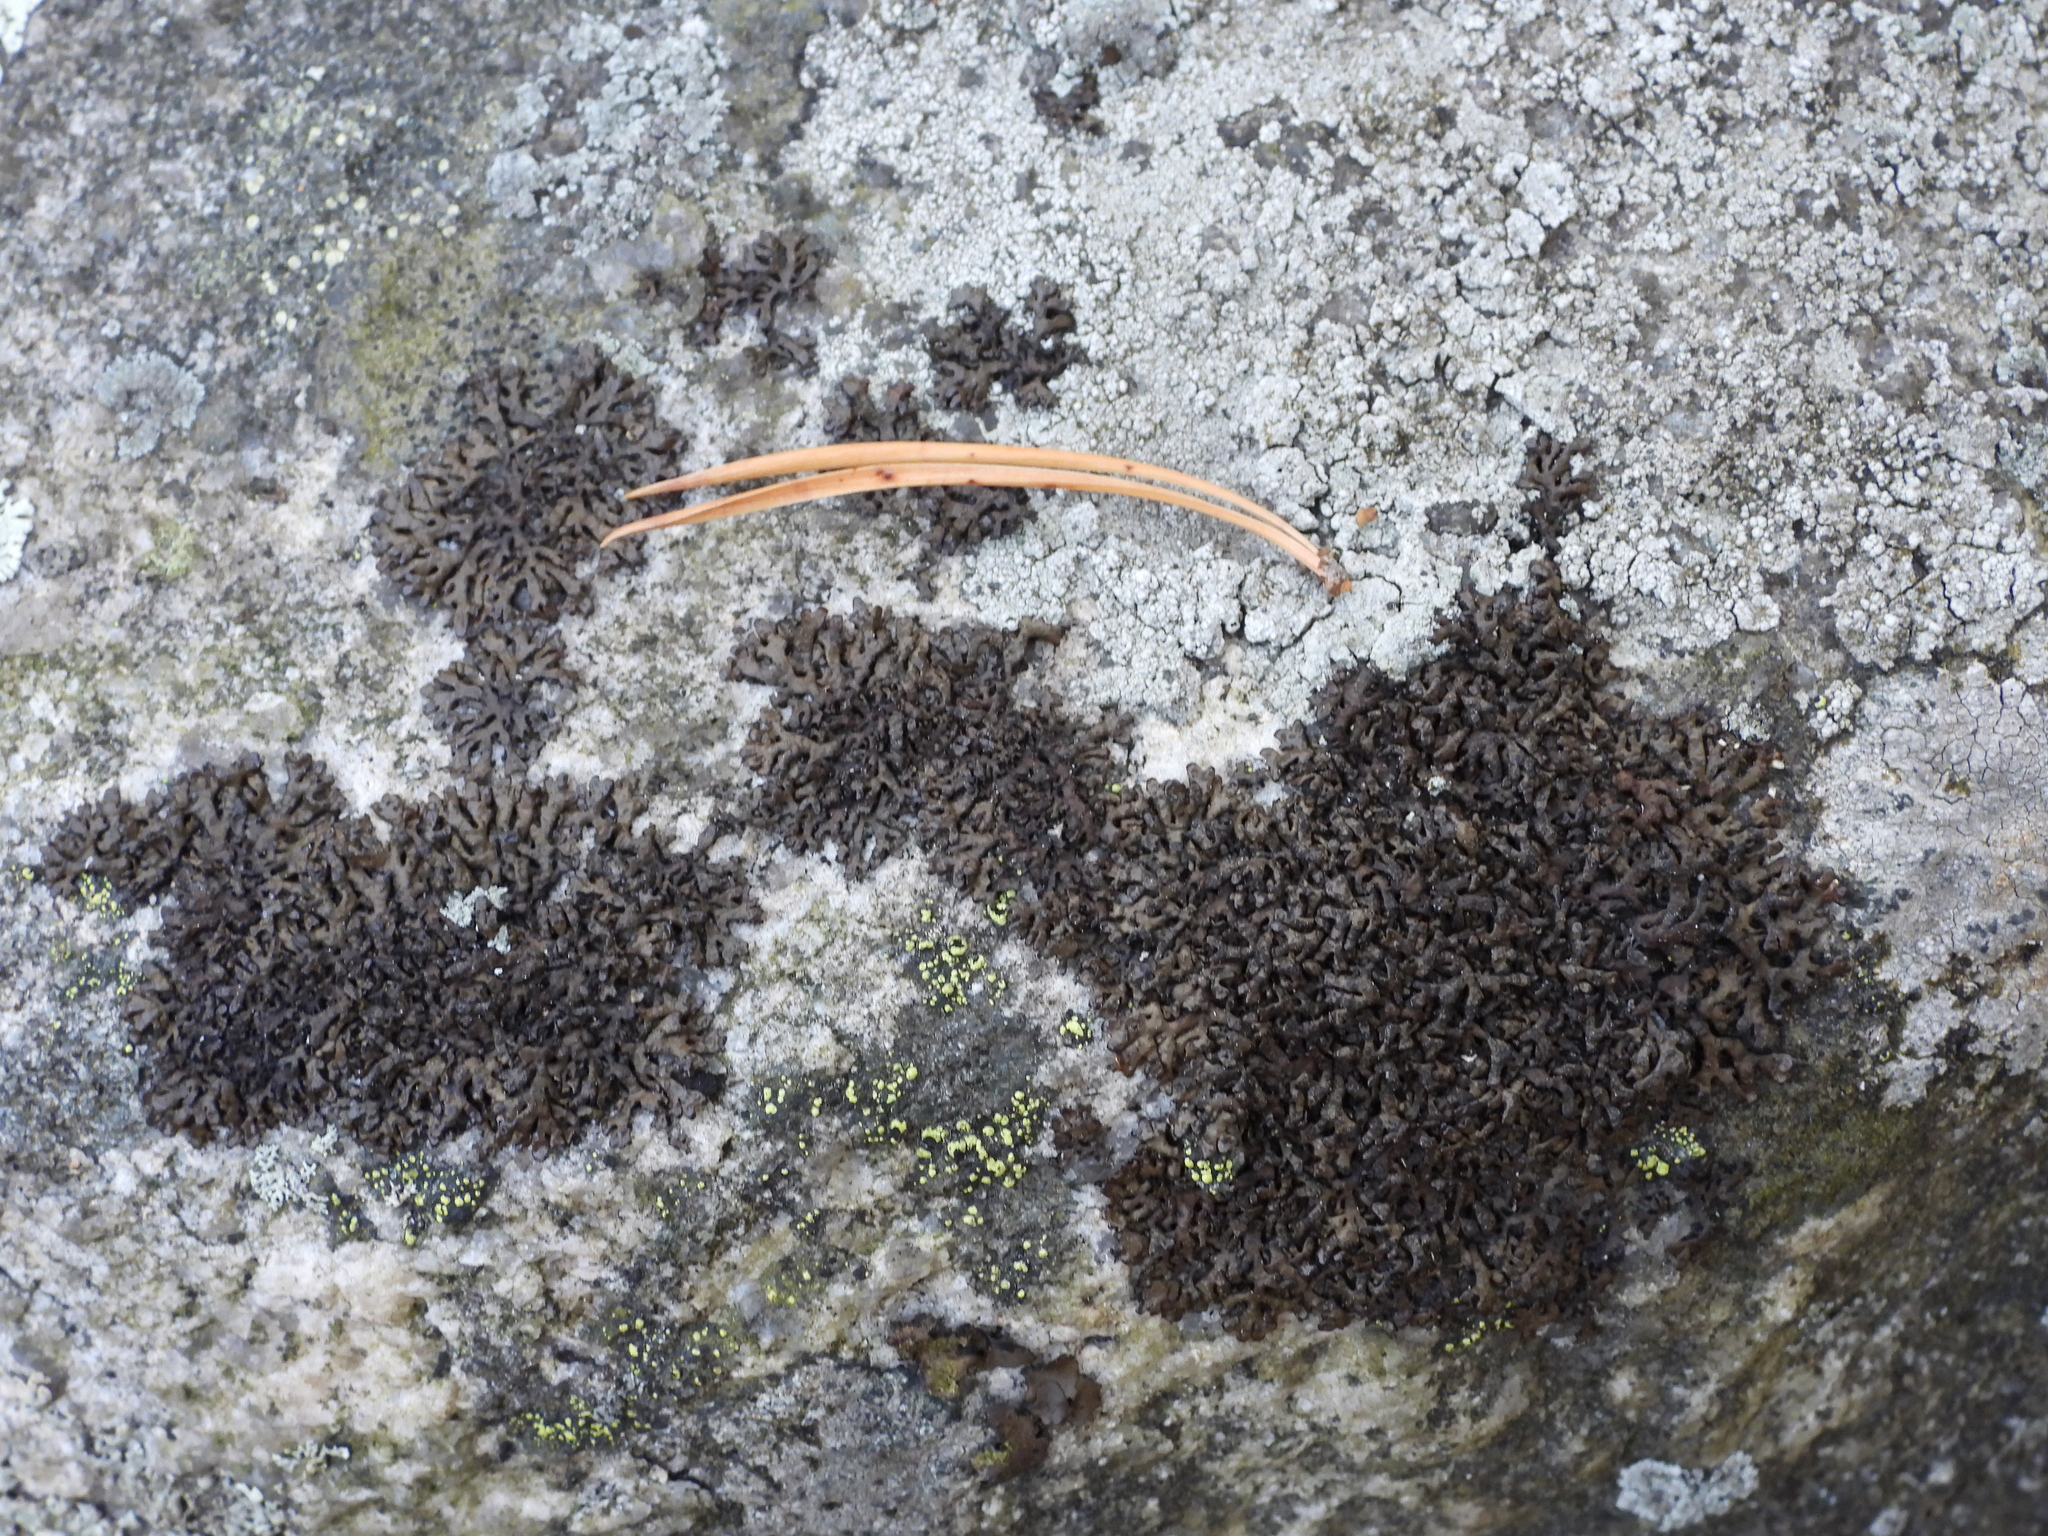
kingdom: Fungi
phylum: Ascomycota
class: Lecanoromycetes
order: Lecanorales
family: Parmeliaceae
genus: Melanelia
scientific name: Melanelia stygia
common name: Alpine camouflage lichen
